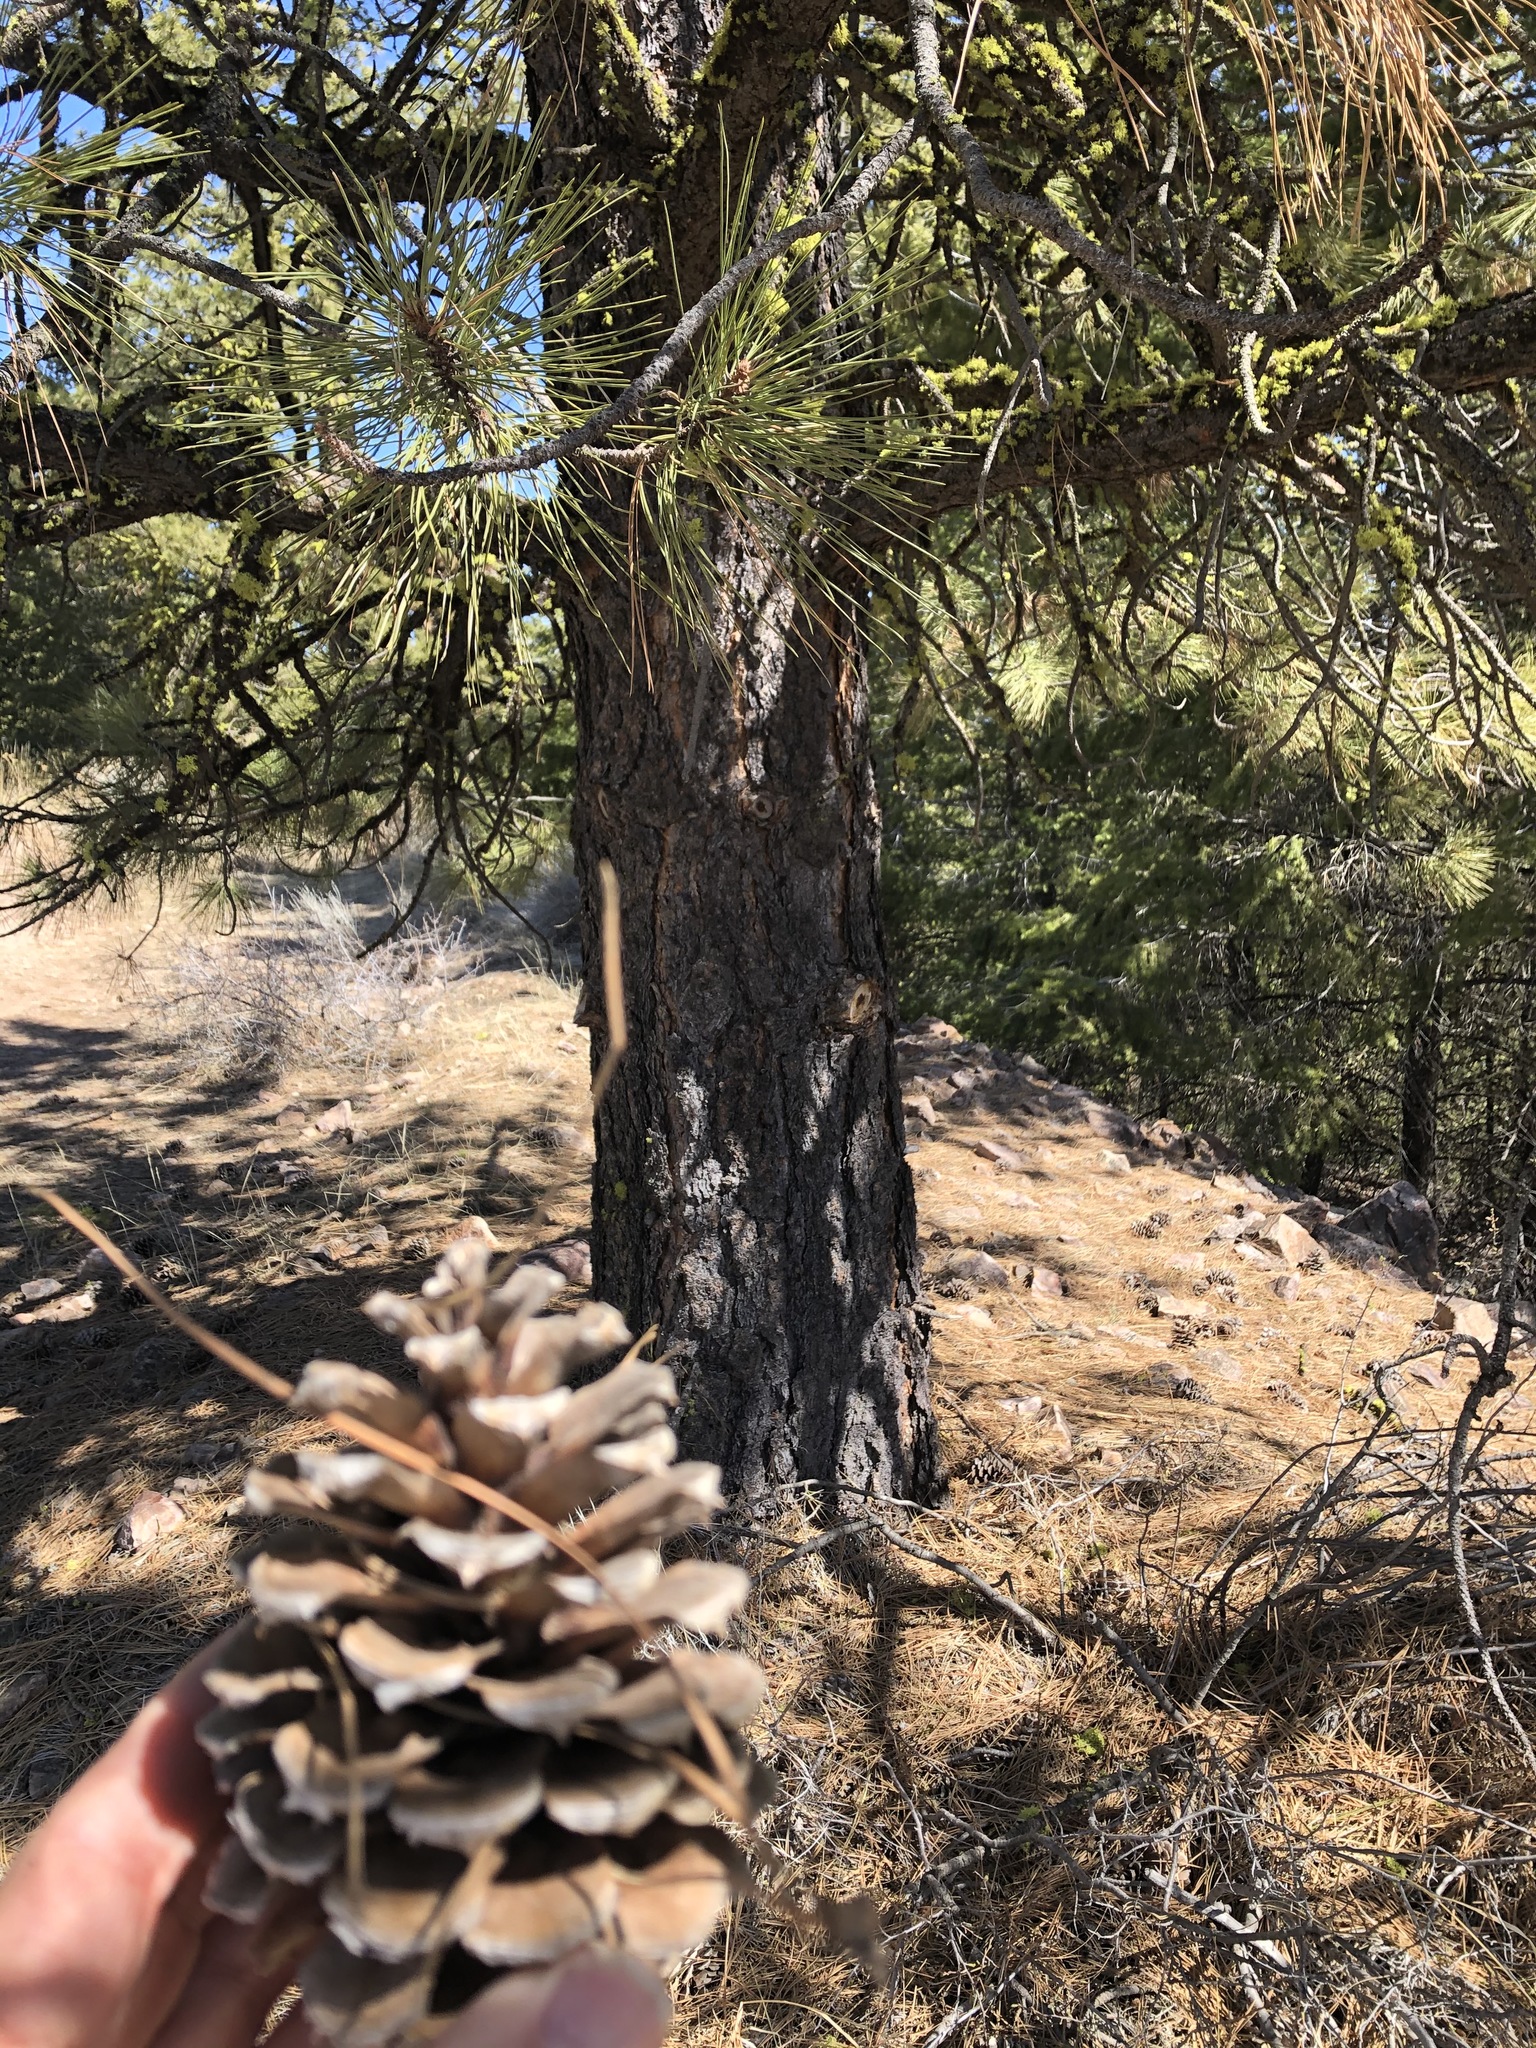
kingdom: Plantae
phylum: Tracheophyta
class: Pinopsida
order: Pinales
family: Pinaceae
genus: Pinus
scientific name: Pinus ponderosa
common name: Western yellow-pine
